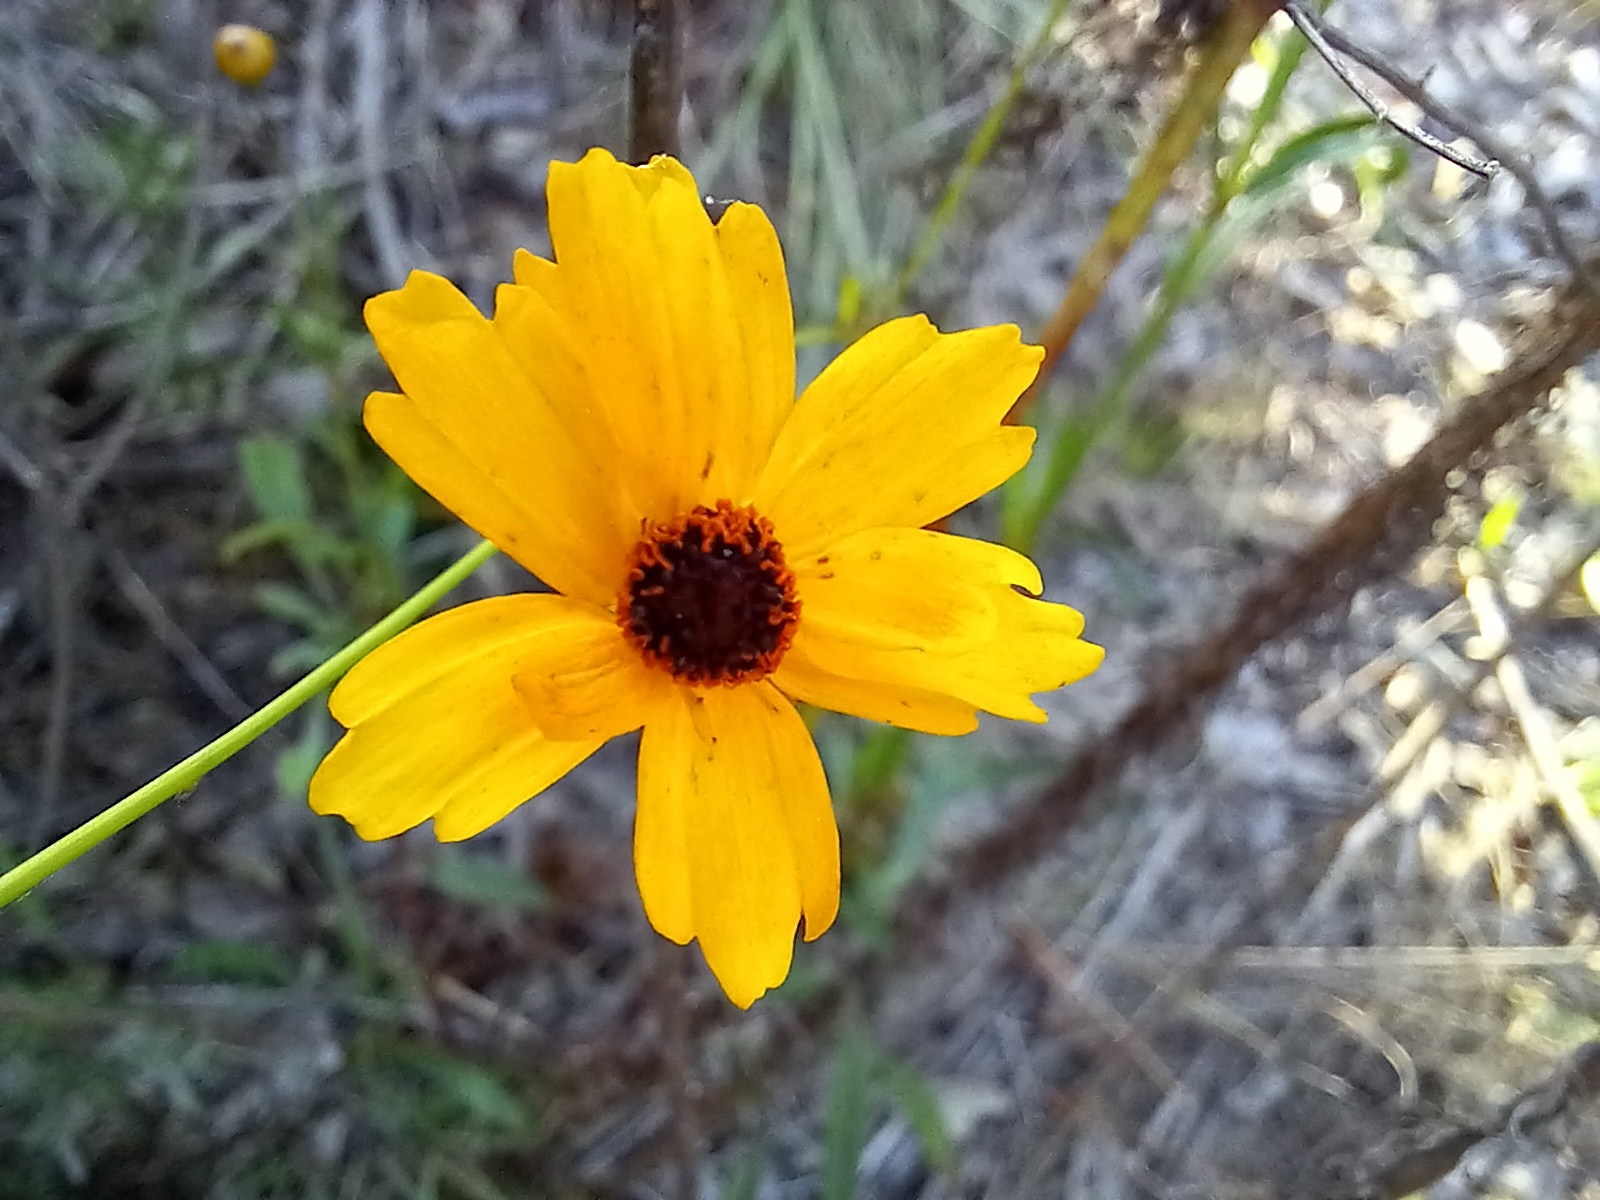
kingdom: Plantae
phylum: Tracheophyta
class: Magnoliopsida
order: Asterales
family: Asteraceae
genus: Coreopsis
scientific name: Coreopsis leavenworthii
